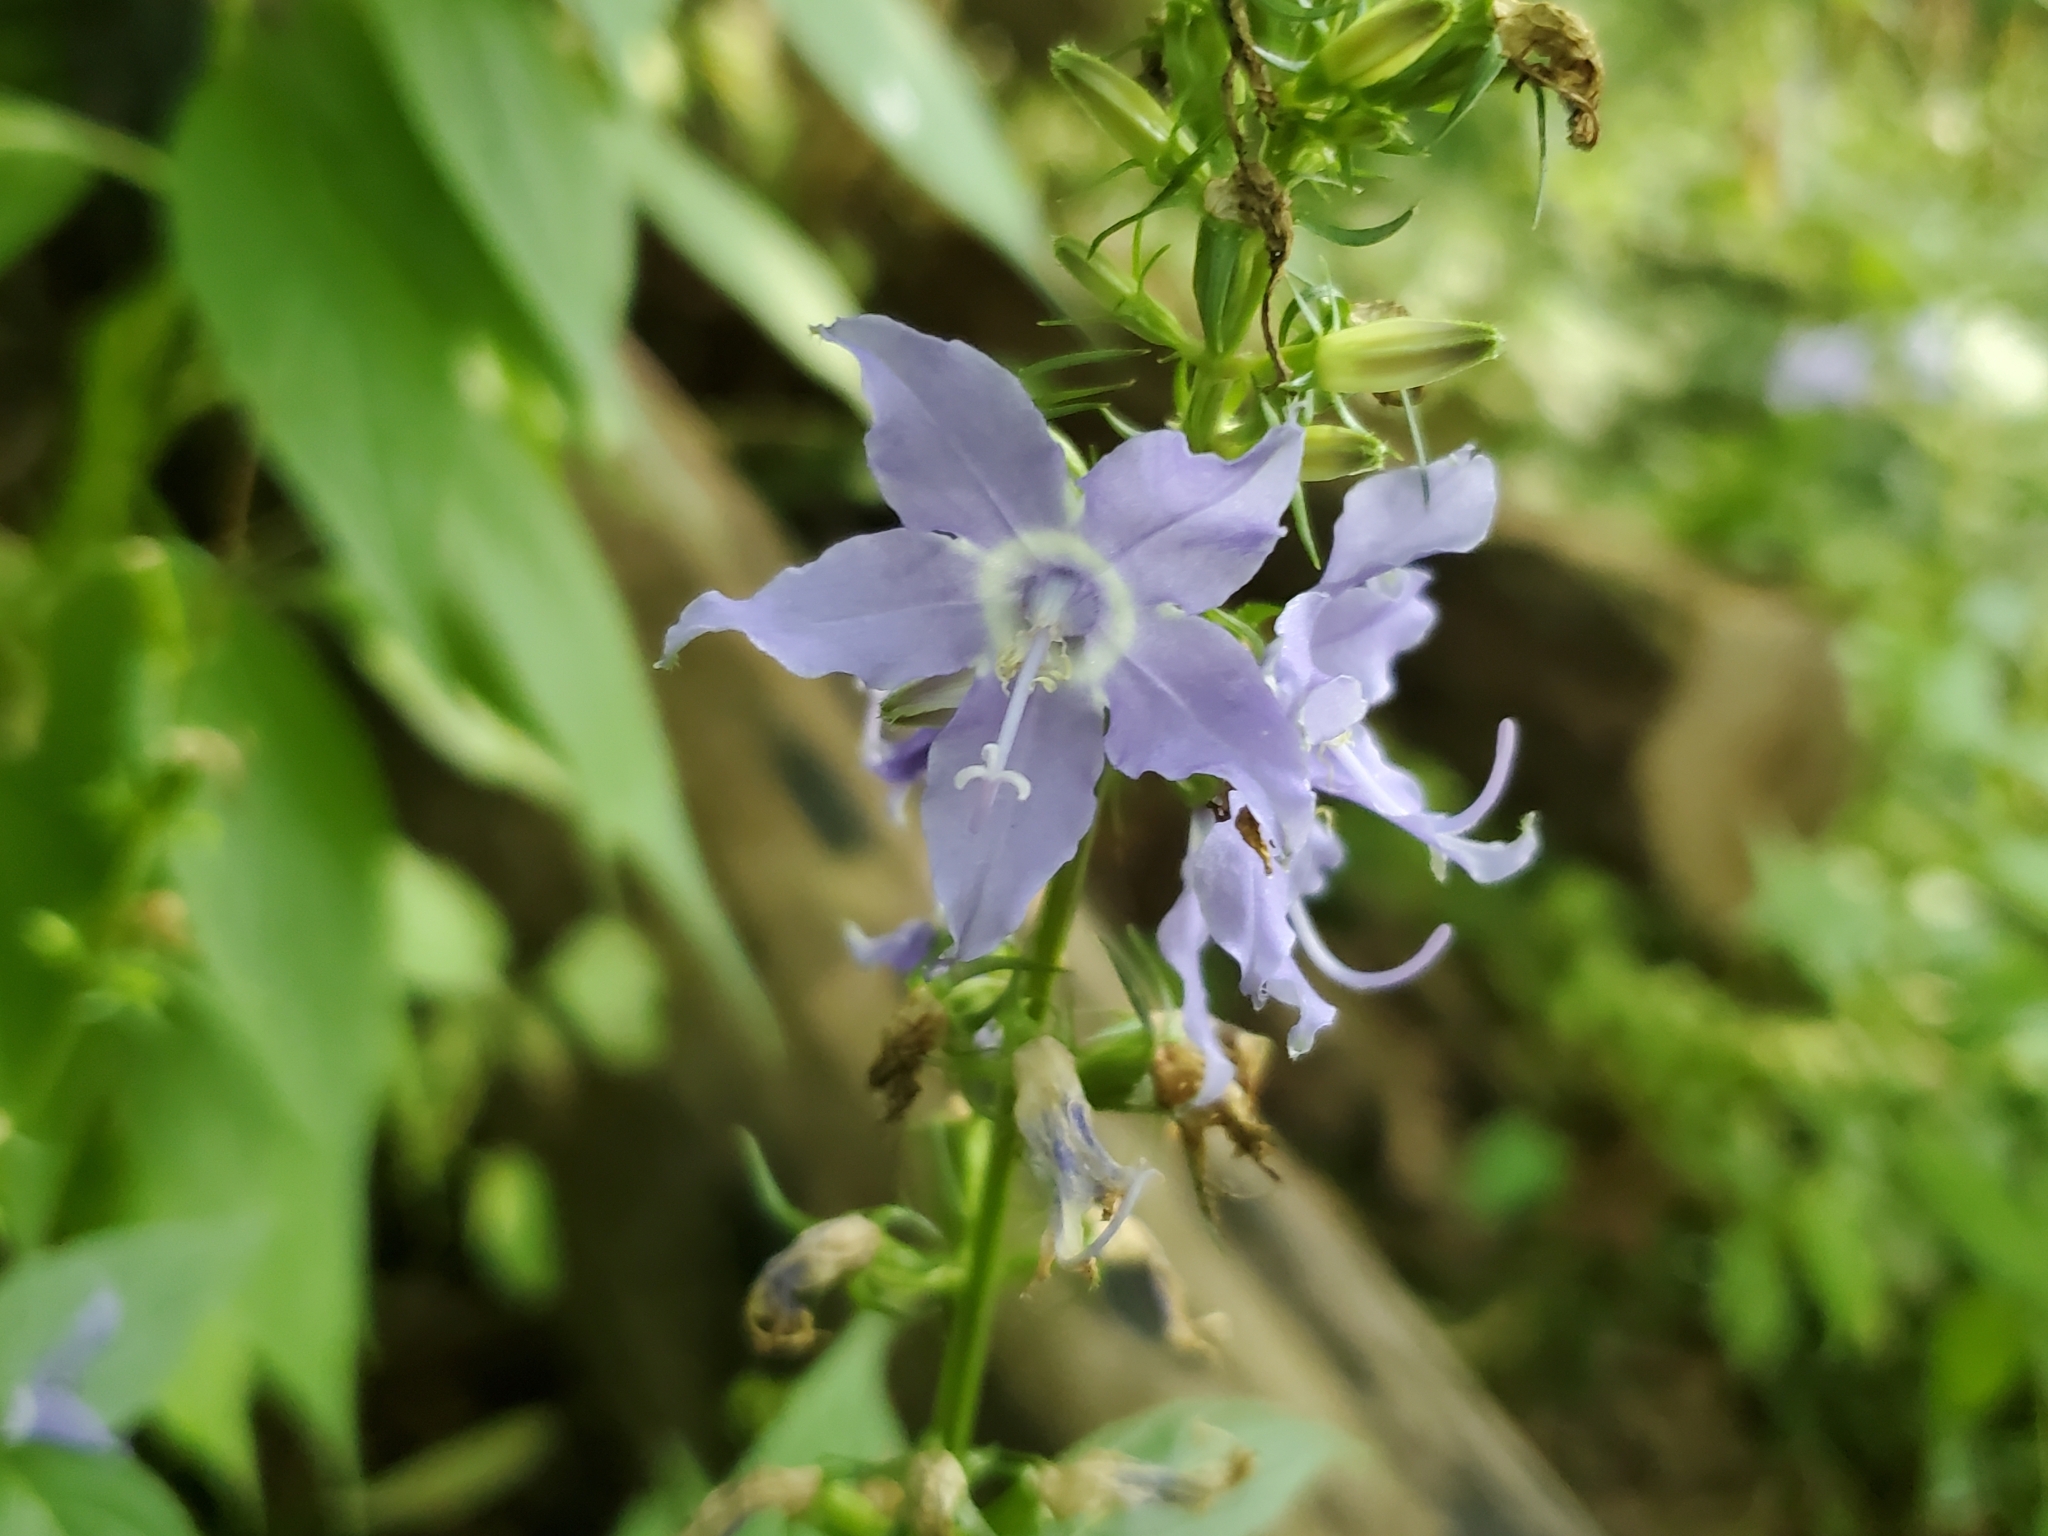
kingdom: Plantae
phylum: Tracheophyta
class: Magnoliopsida
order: Asterales
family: Campanulaceae
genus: Campanulastrum
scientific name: Campanulastrum americanum
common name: American bellflower
